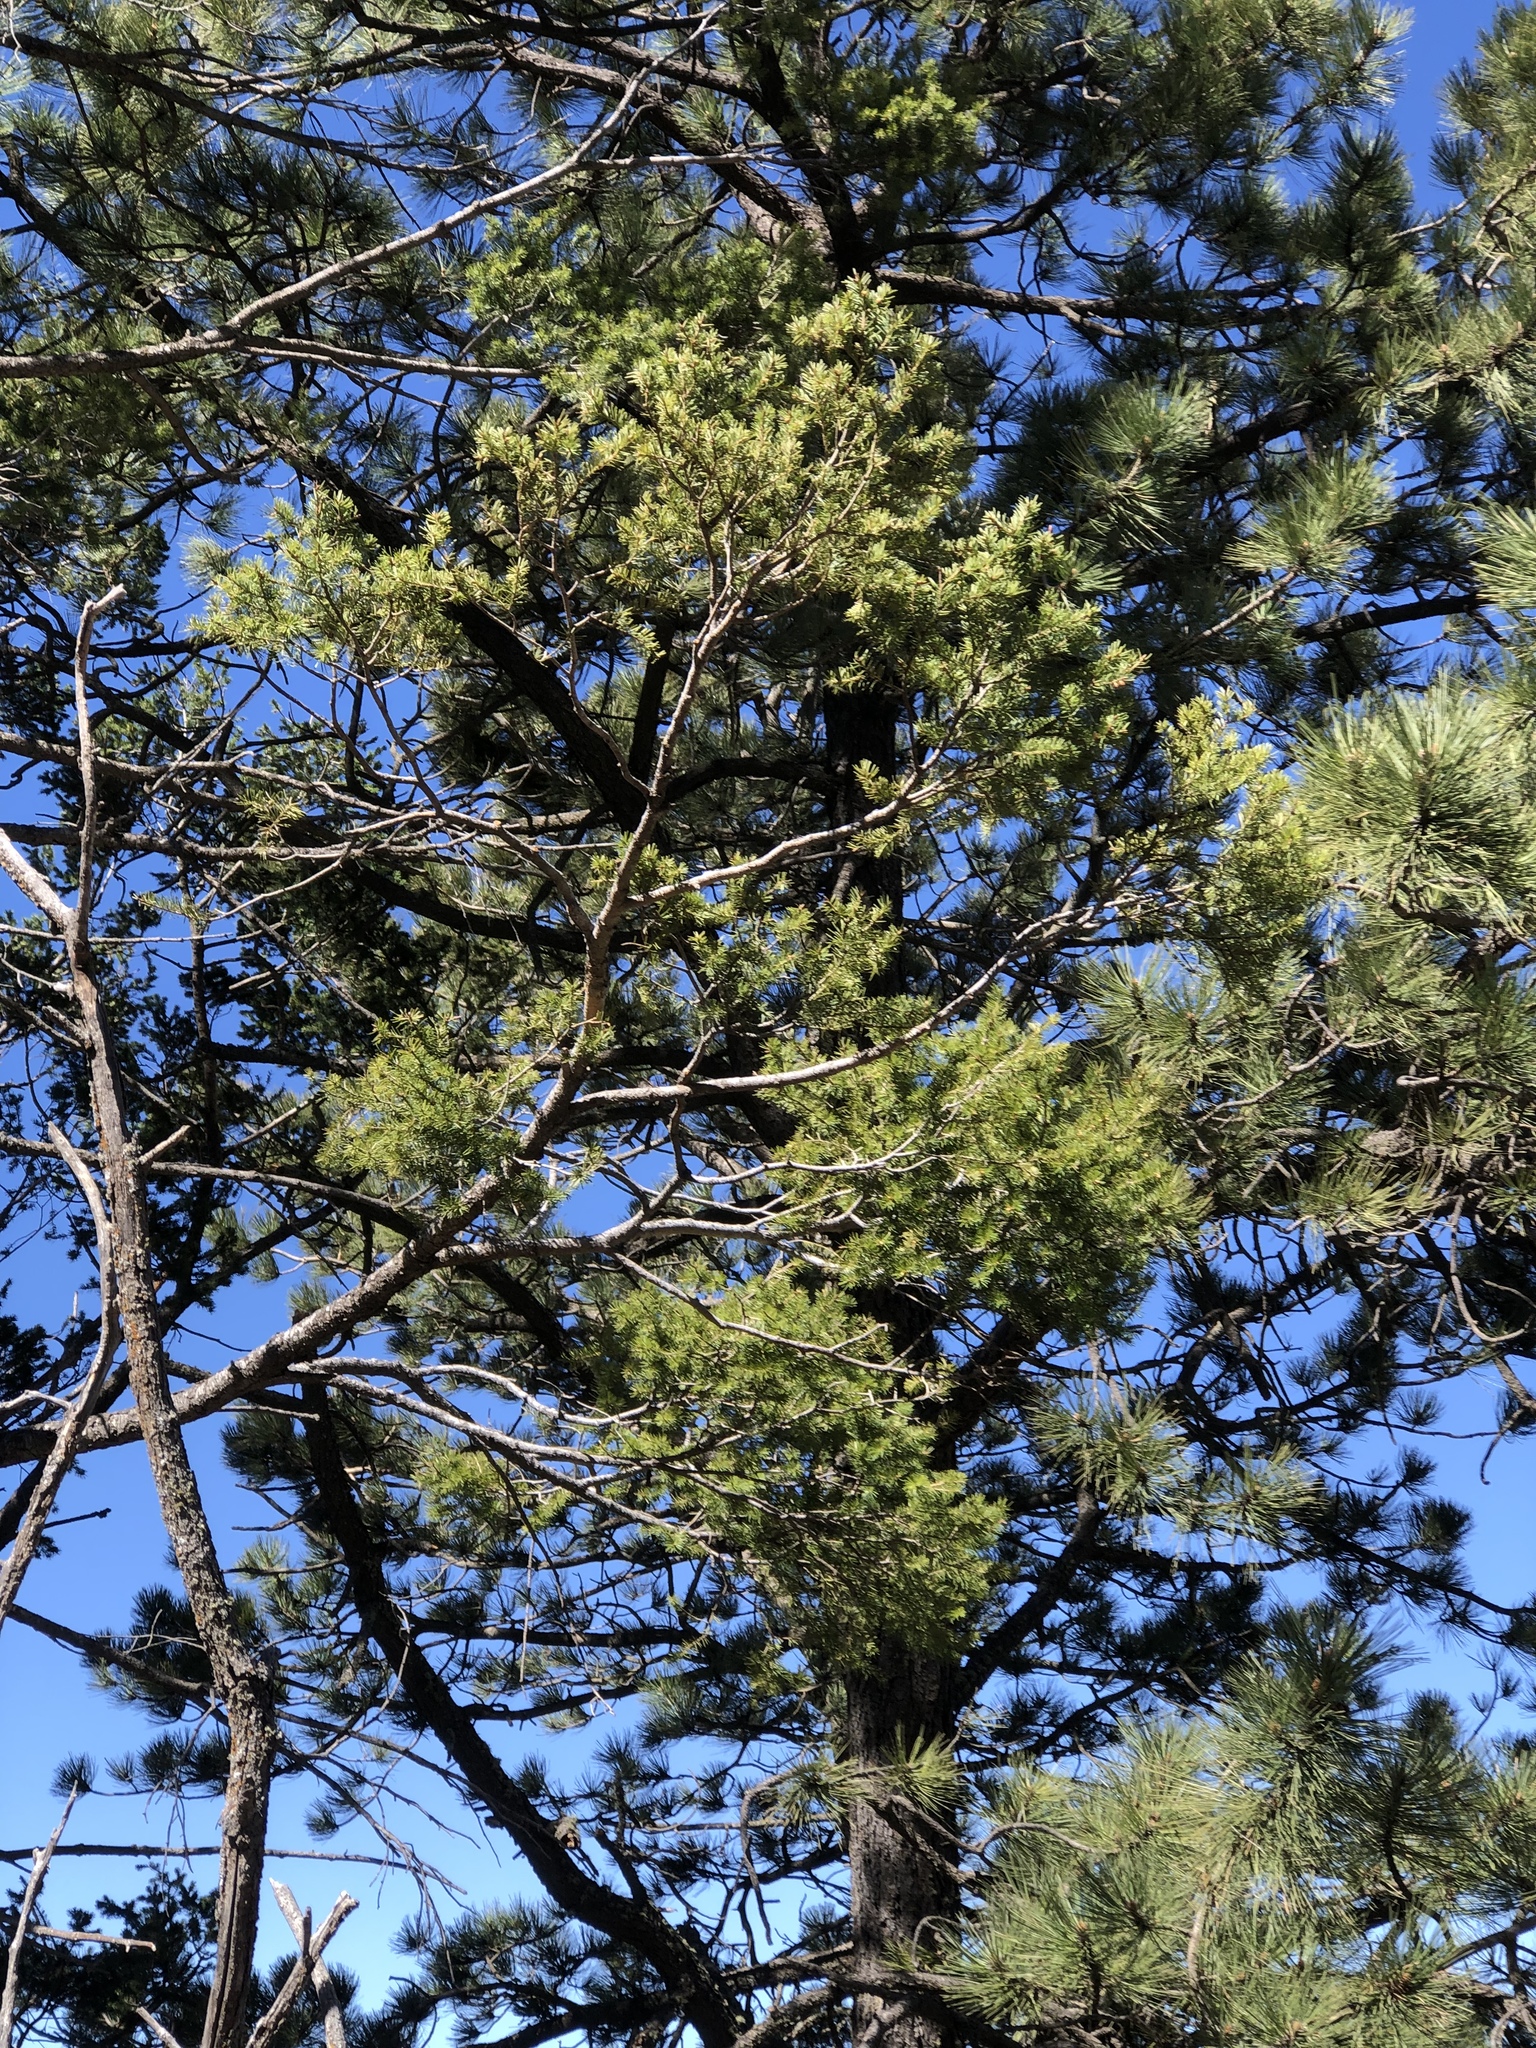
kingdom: Plantae
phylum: Tracheophyta
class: Pinopsida
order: Pinales
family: Pinaceae
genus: Pseudotsuga
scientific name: Pseudotsuga menziesii
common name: Douglas fir
